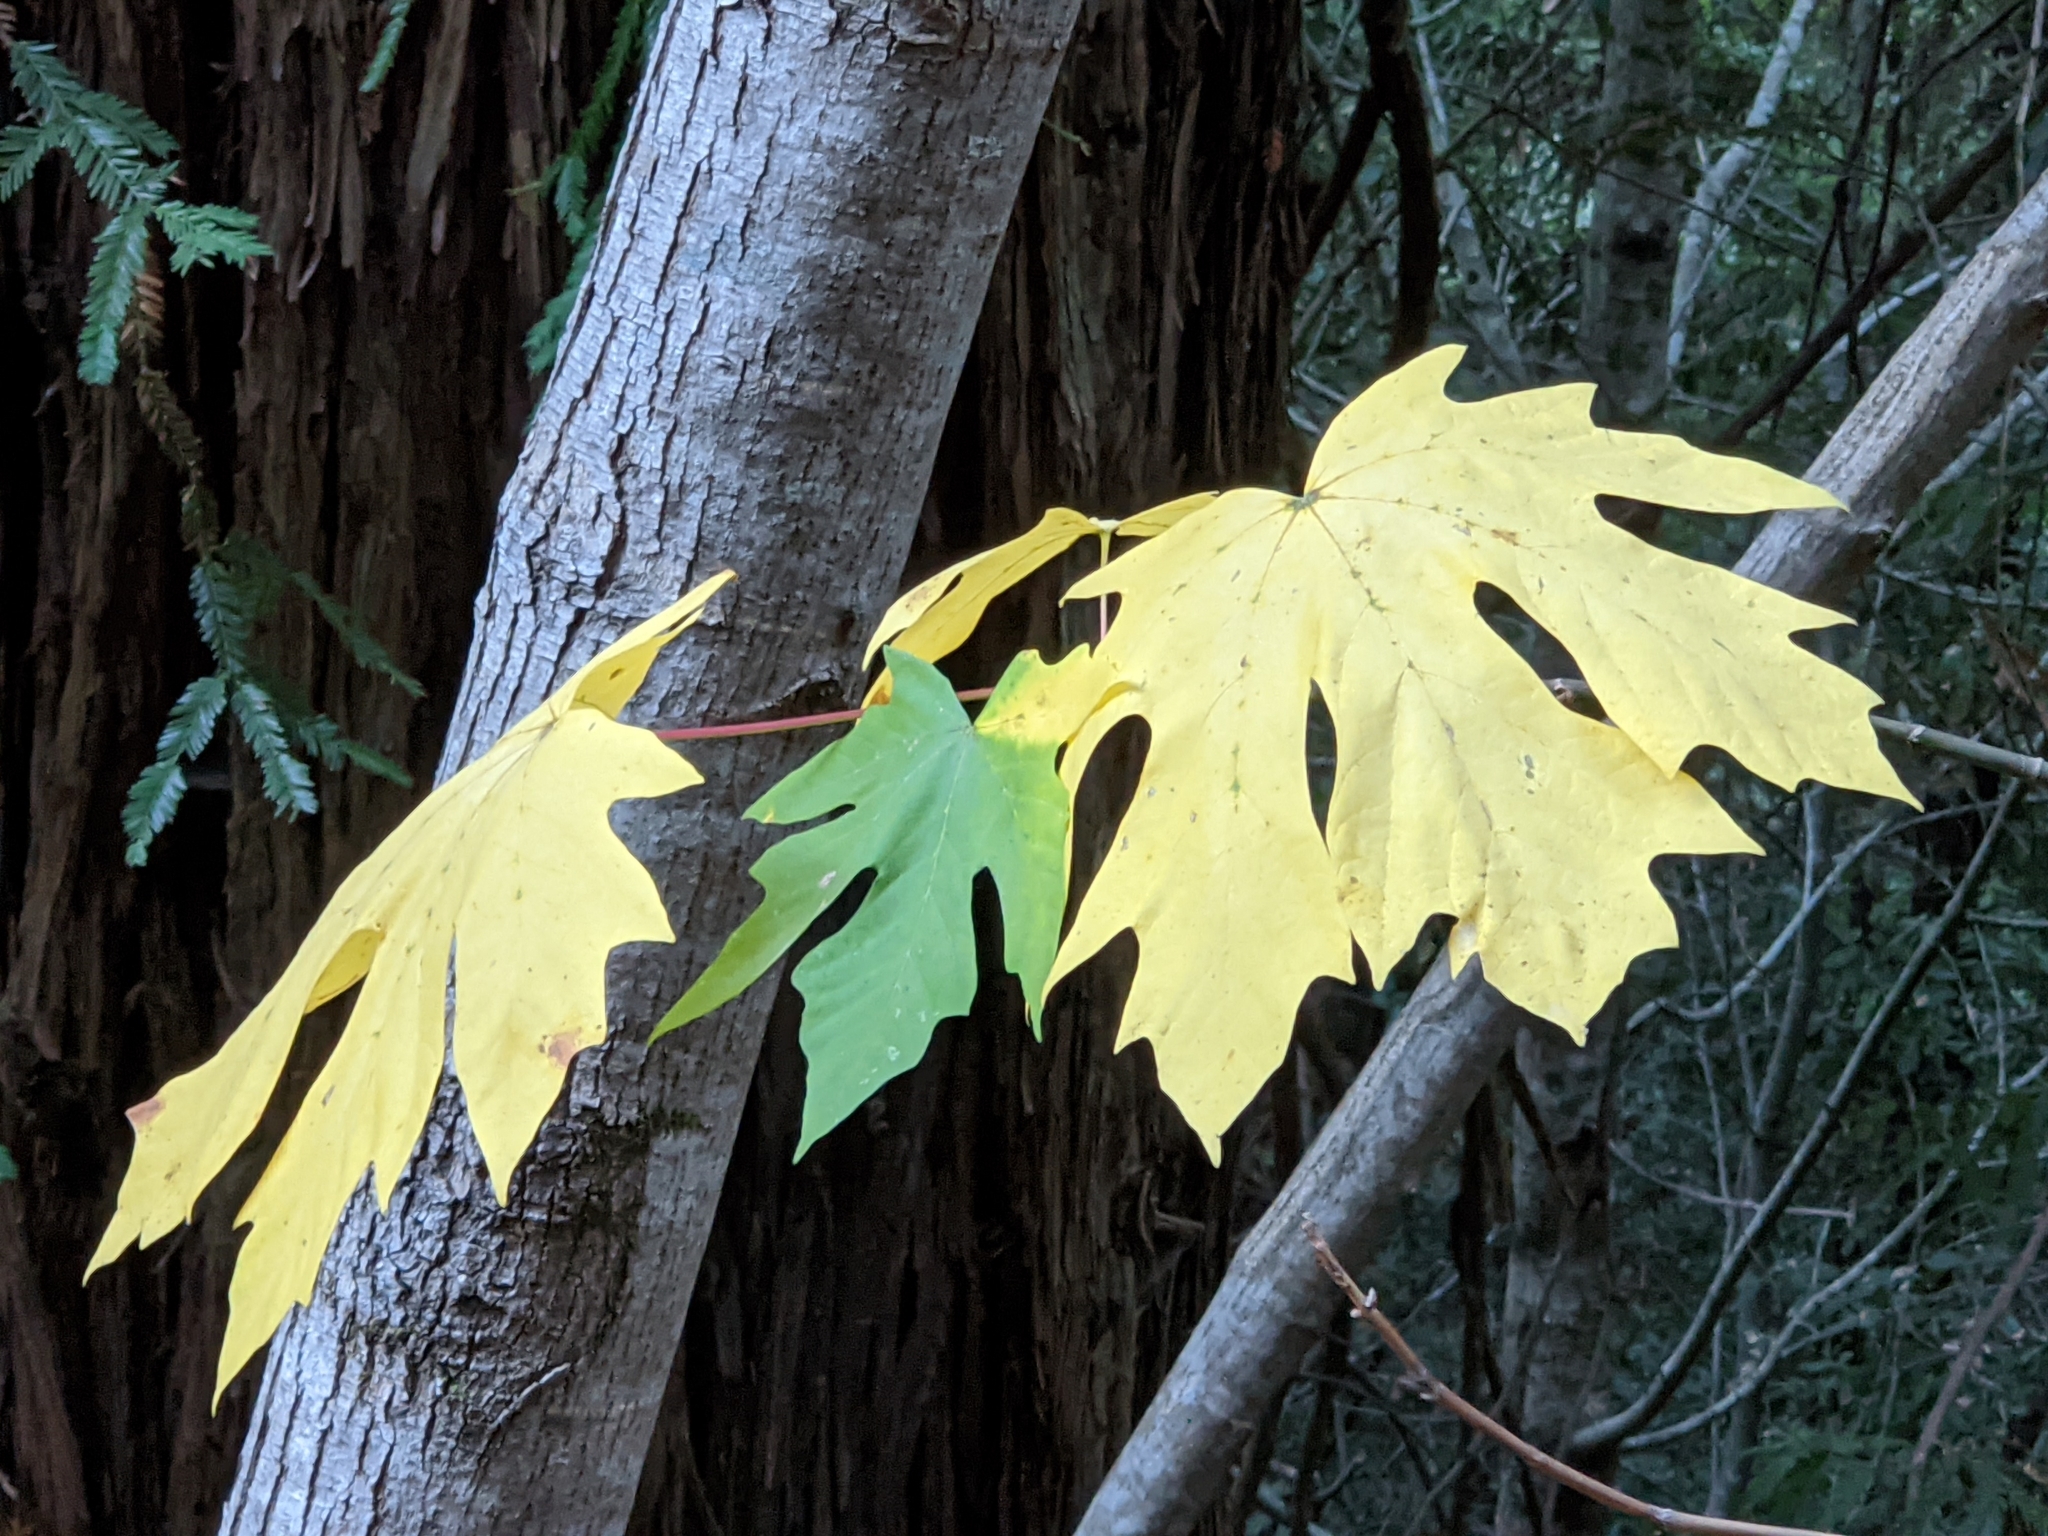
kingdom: Plantae
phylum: Tracheophyta
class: Magnoliopsida
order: Sapindales
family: Sapindaceae
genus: Acer
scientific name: Acer macrophyllum
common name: Oregon maple
